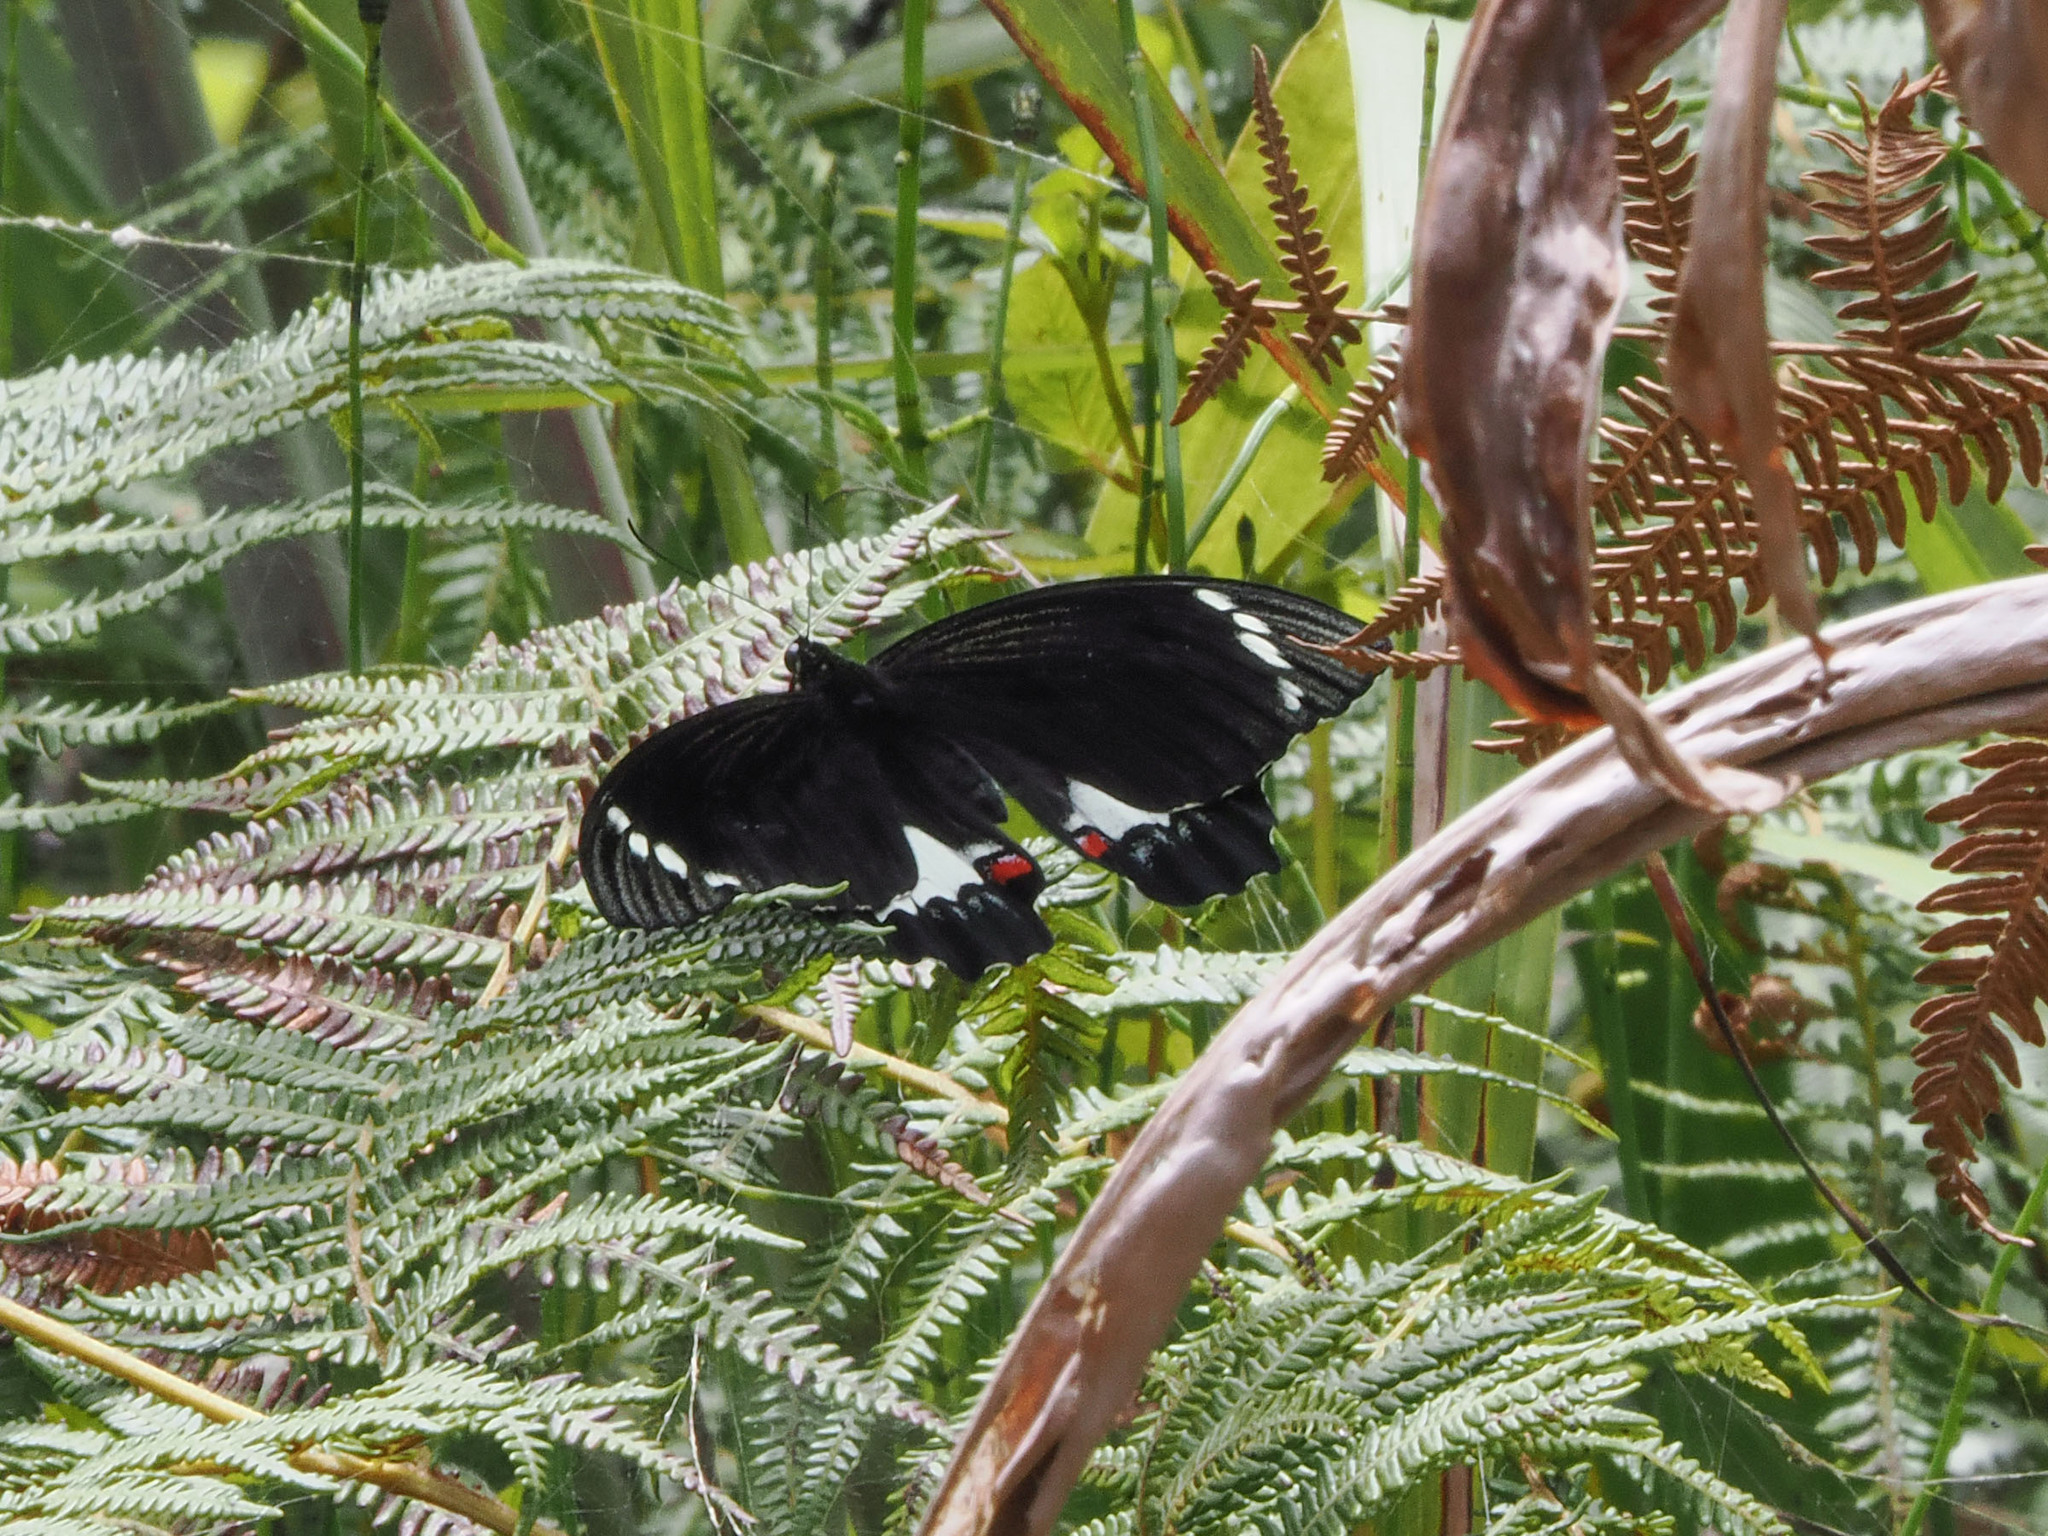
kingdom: Animalia
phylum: Arthropoda
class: Insecta
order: Lepidoptera
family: Papilionidae
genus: Papilio
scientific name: Papilio aegeus
